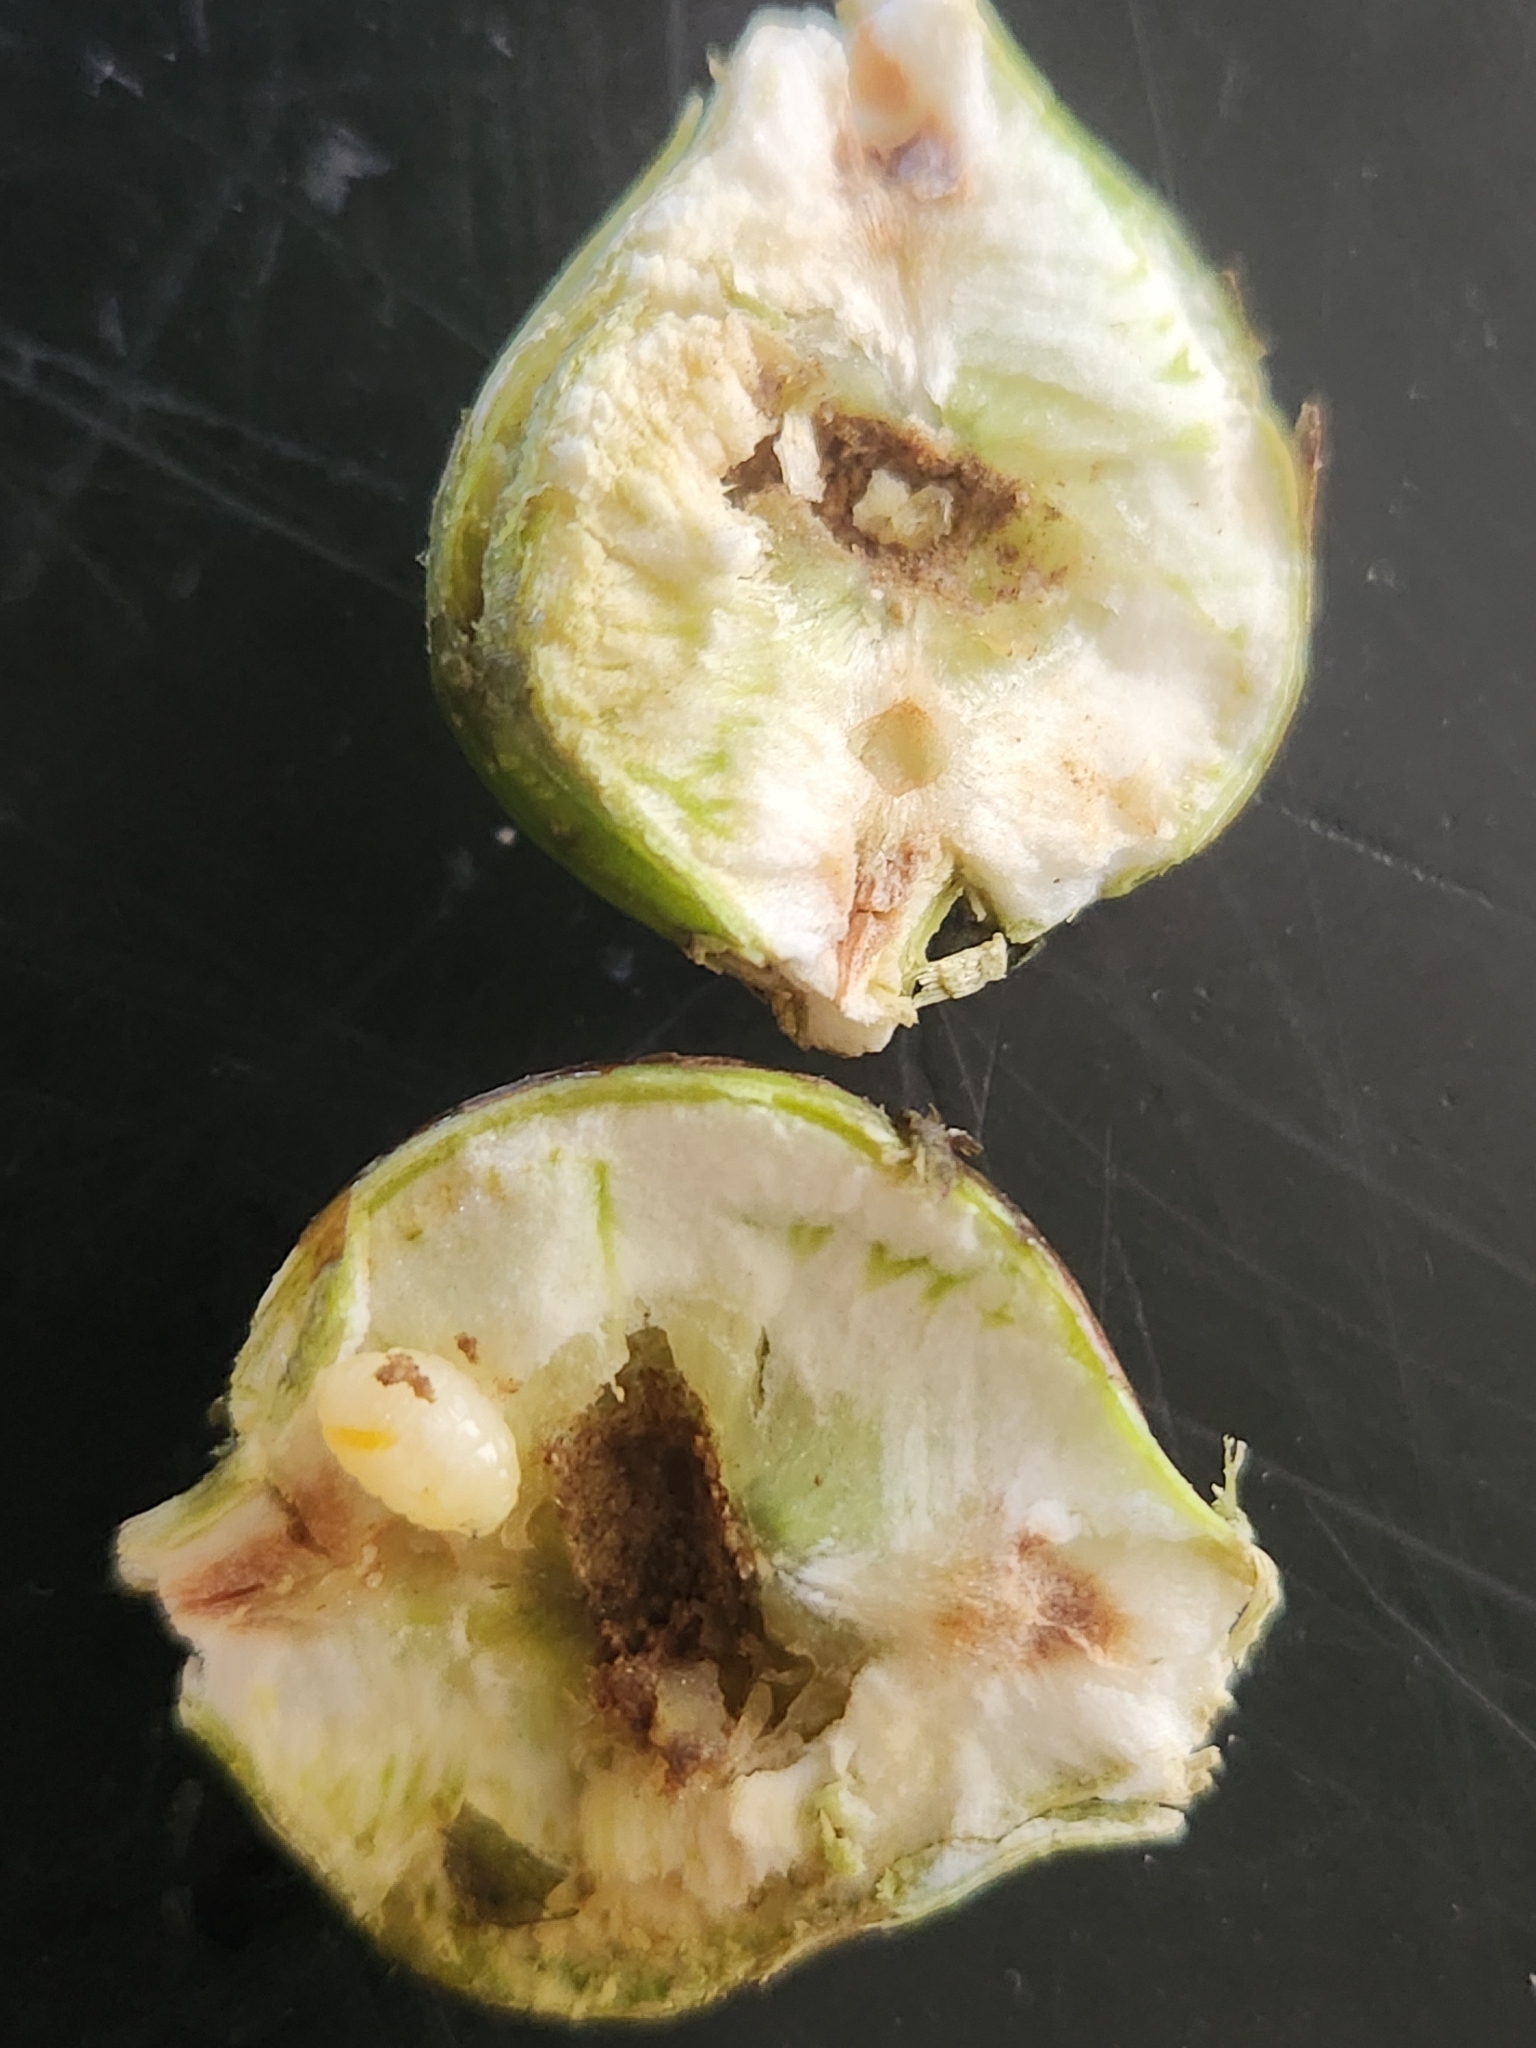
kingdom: Animalia
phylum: Arthropoda
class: Insecta
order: Diptera
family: Tephritidae
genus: Eurosta
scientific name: Eurosta solidaginis
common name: Goldenrod gall fly
